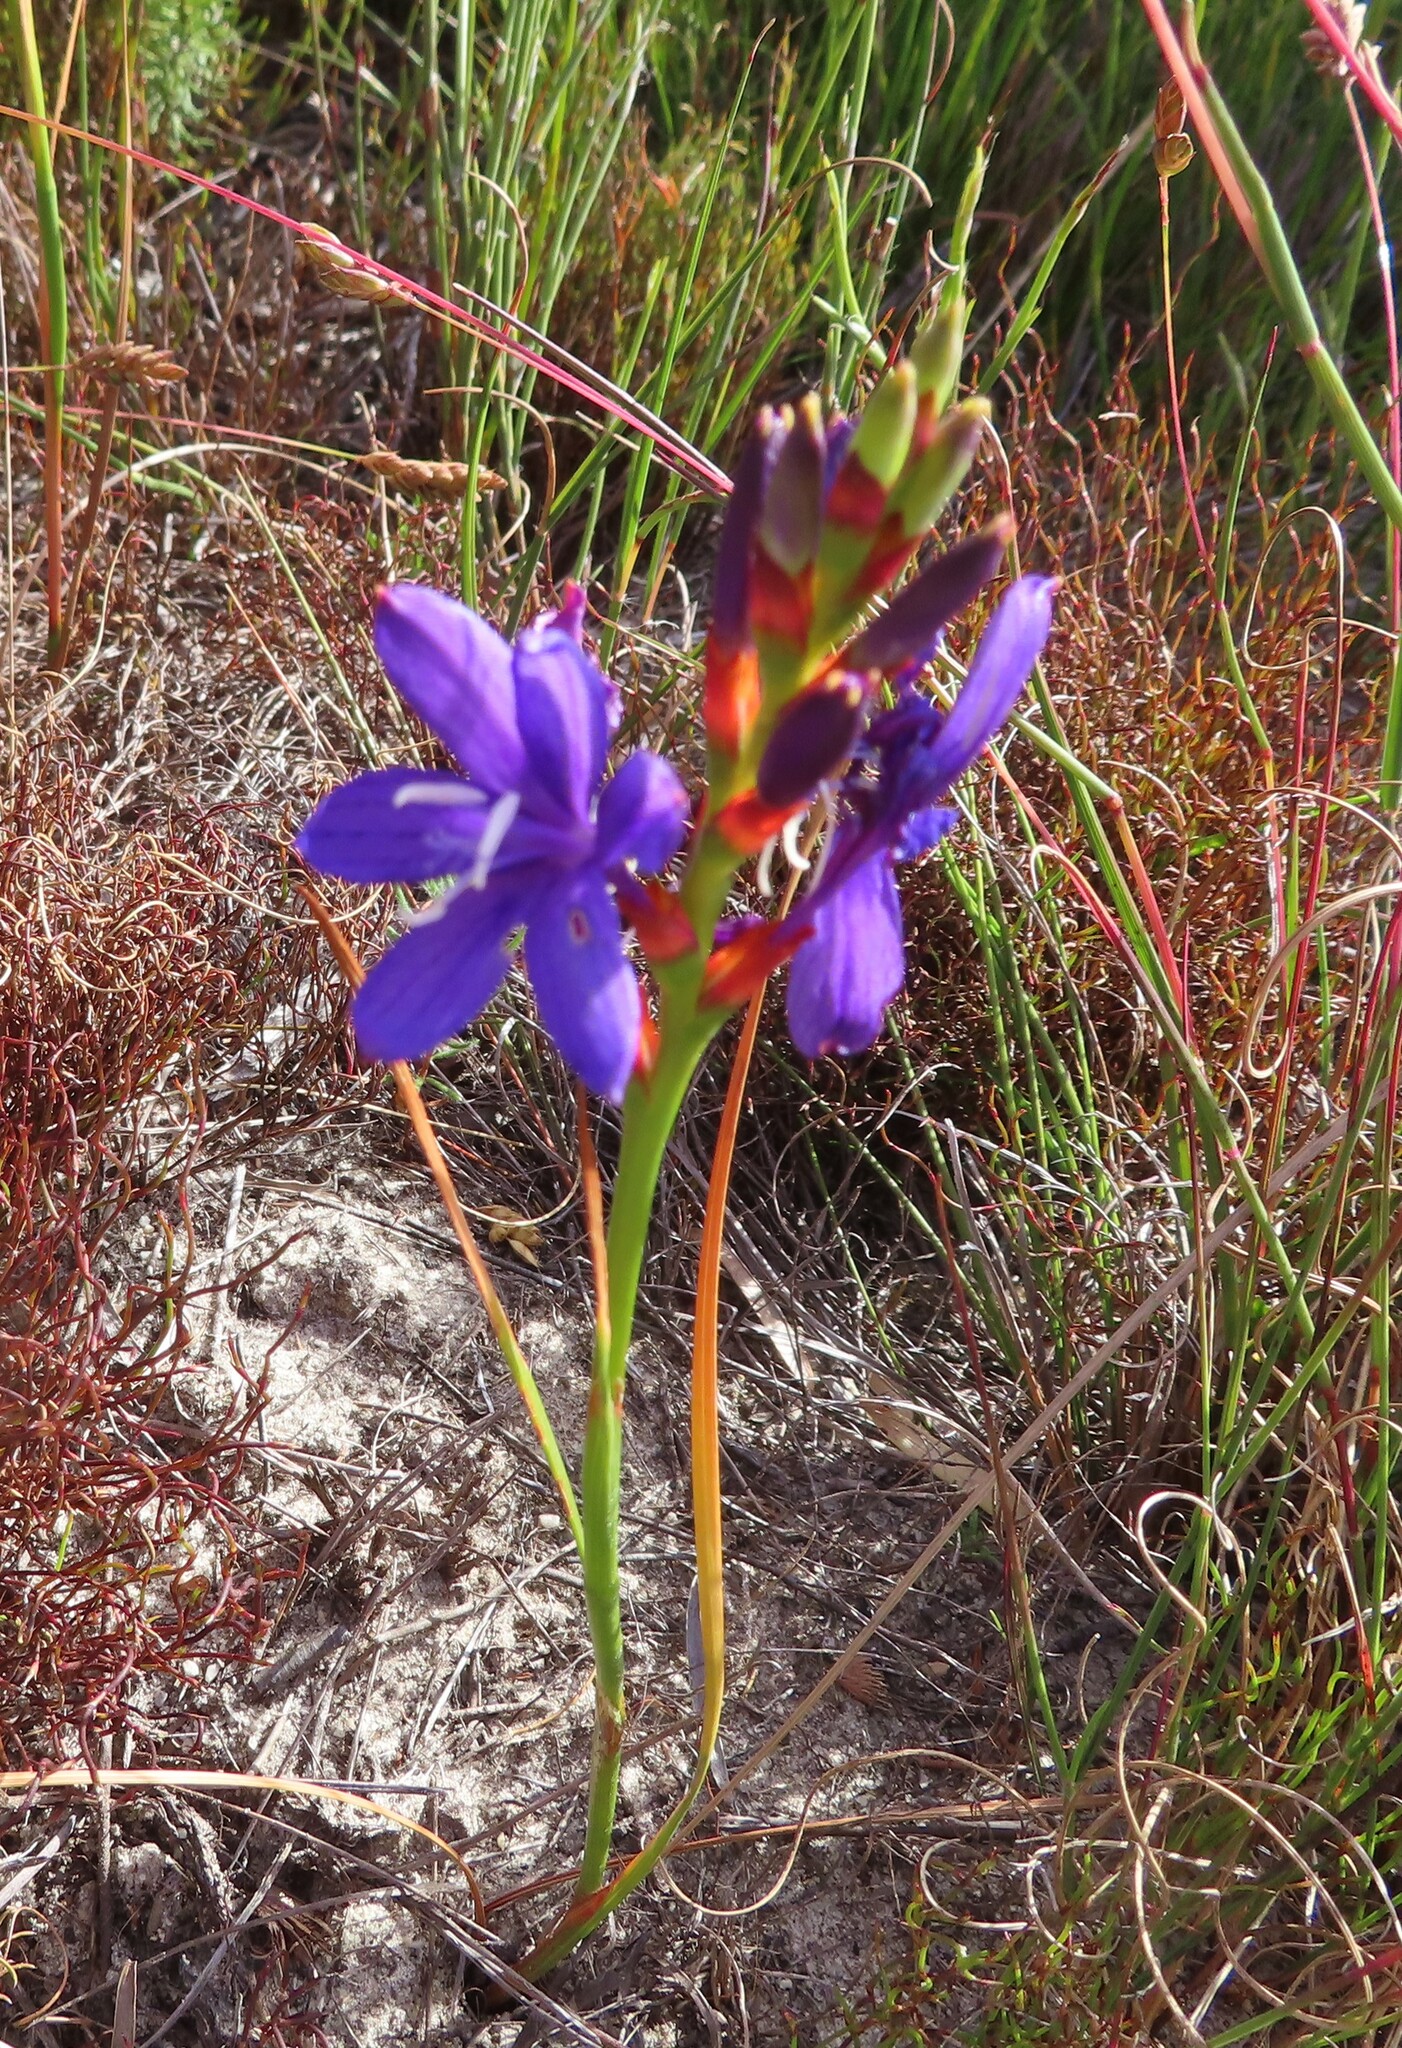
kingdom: Plantae
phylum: Tracheophyta
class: Liliopsida
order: Asparagales
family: Iridaceae
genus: Thereianthus
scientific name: Thereianthus bracteolatus
